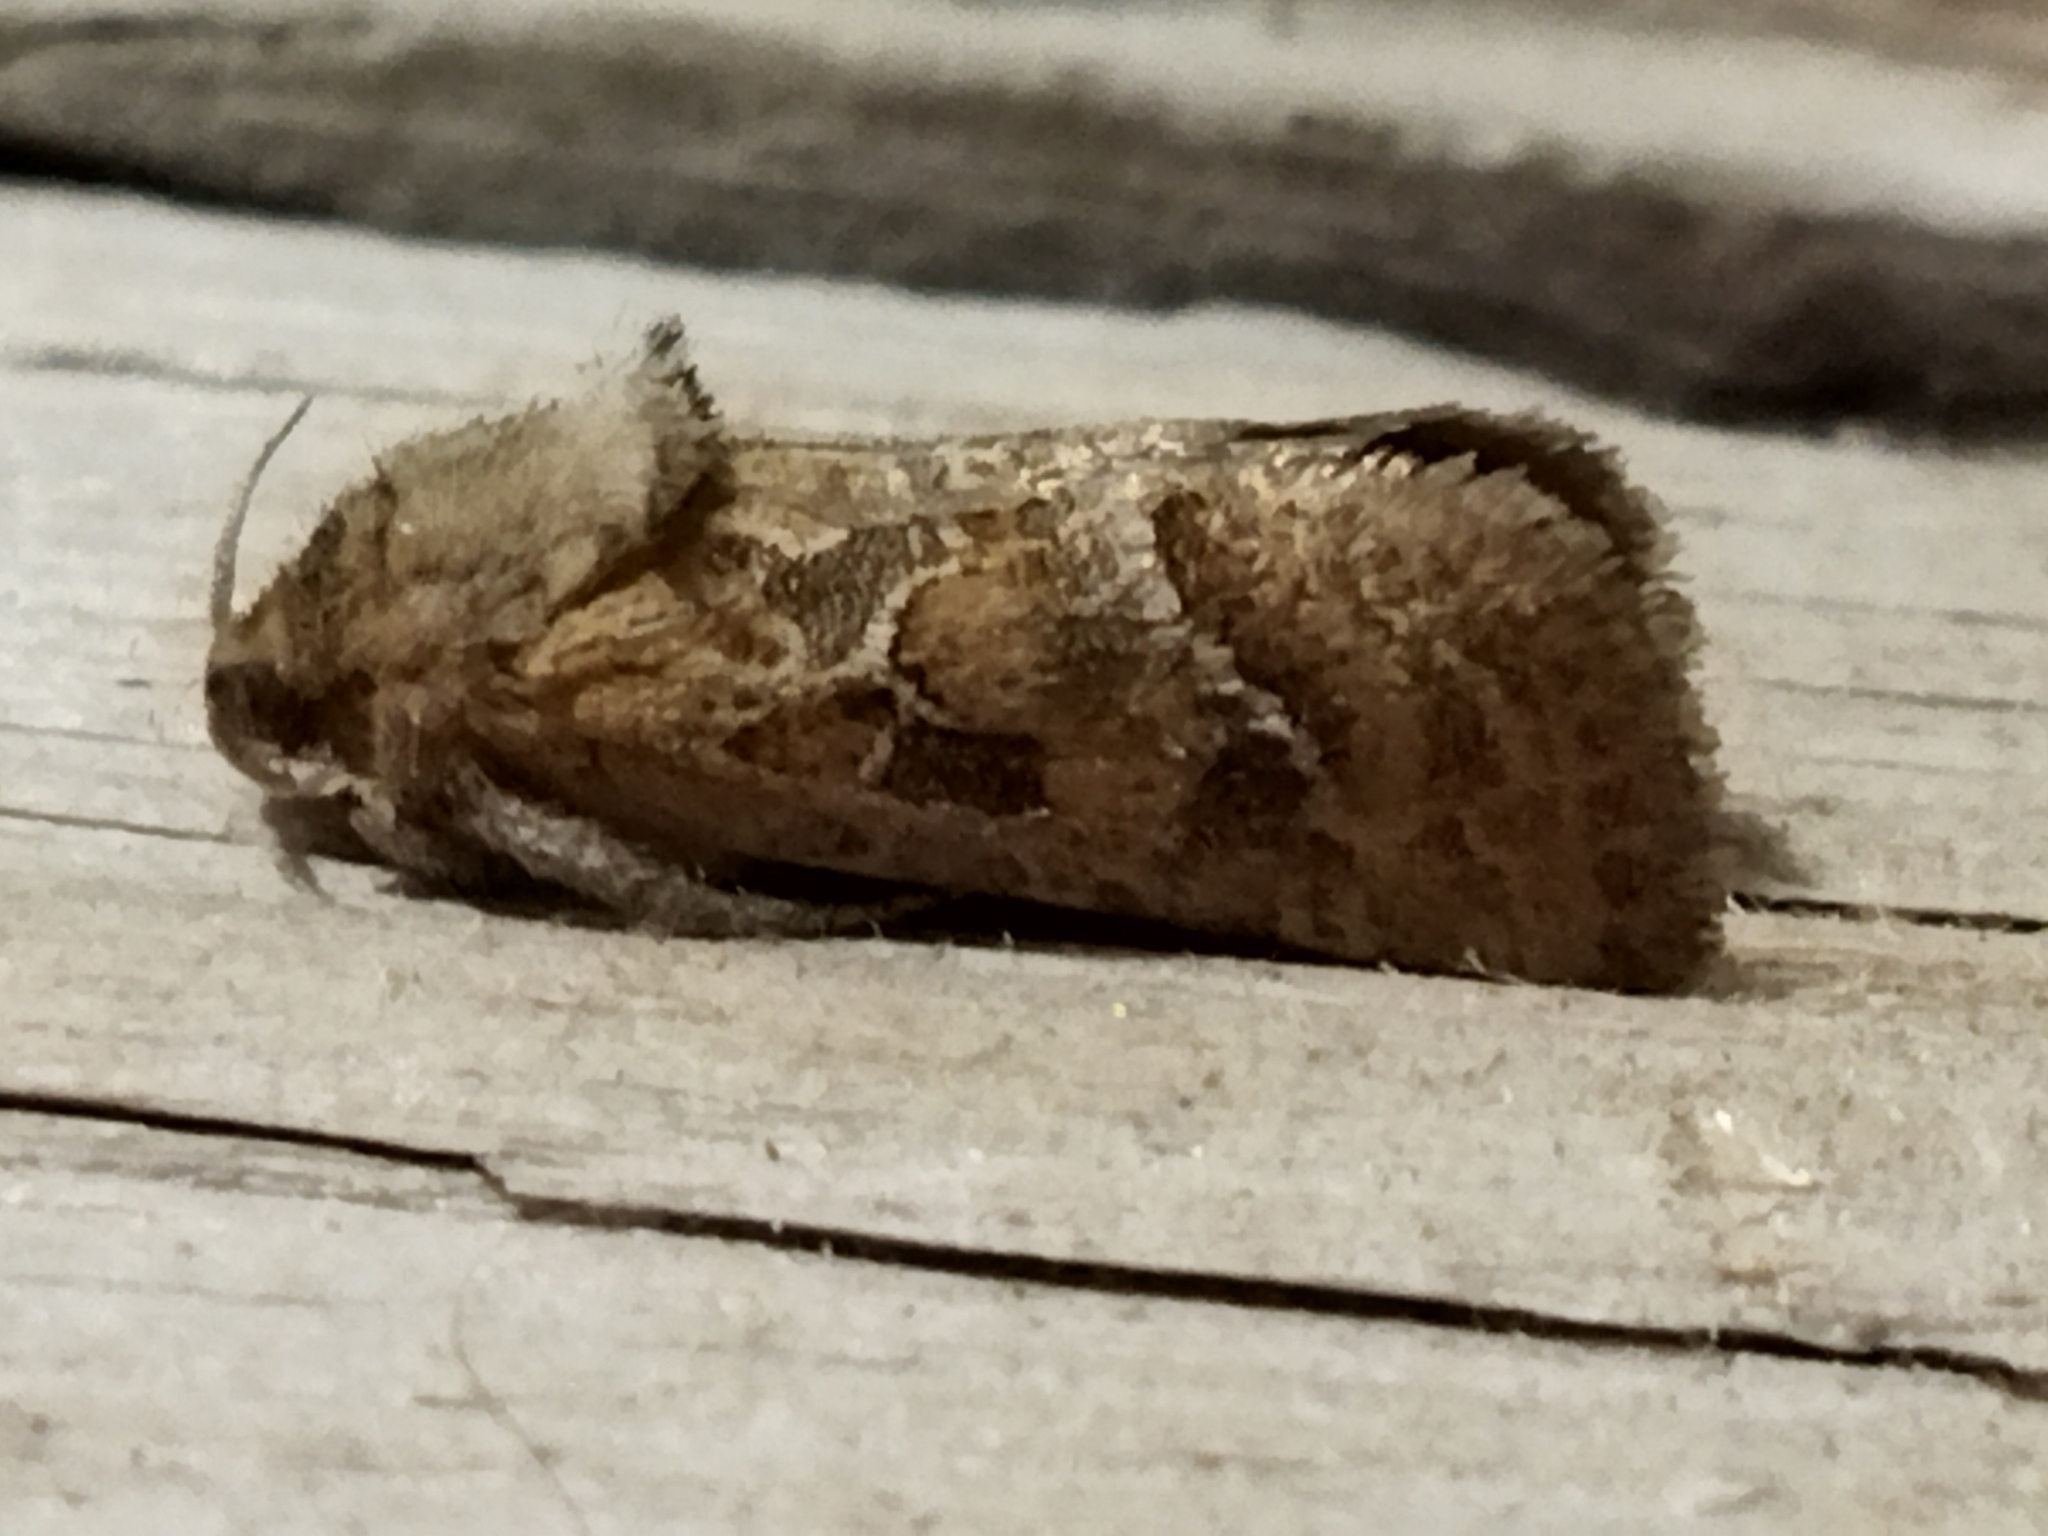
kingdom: Animalia
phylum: Arthropoda
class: Insecta
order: Lepidoptera
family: Hepialidae
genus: Triodia
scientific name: Triodia amasinus
